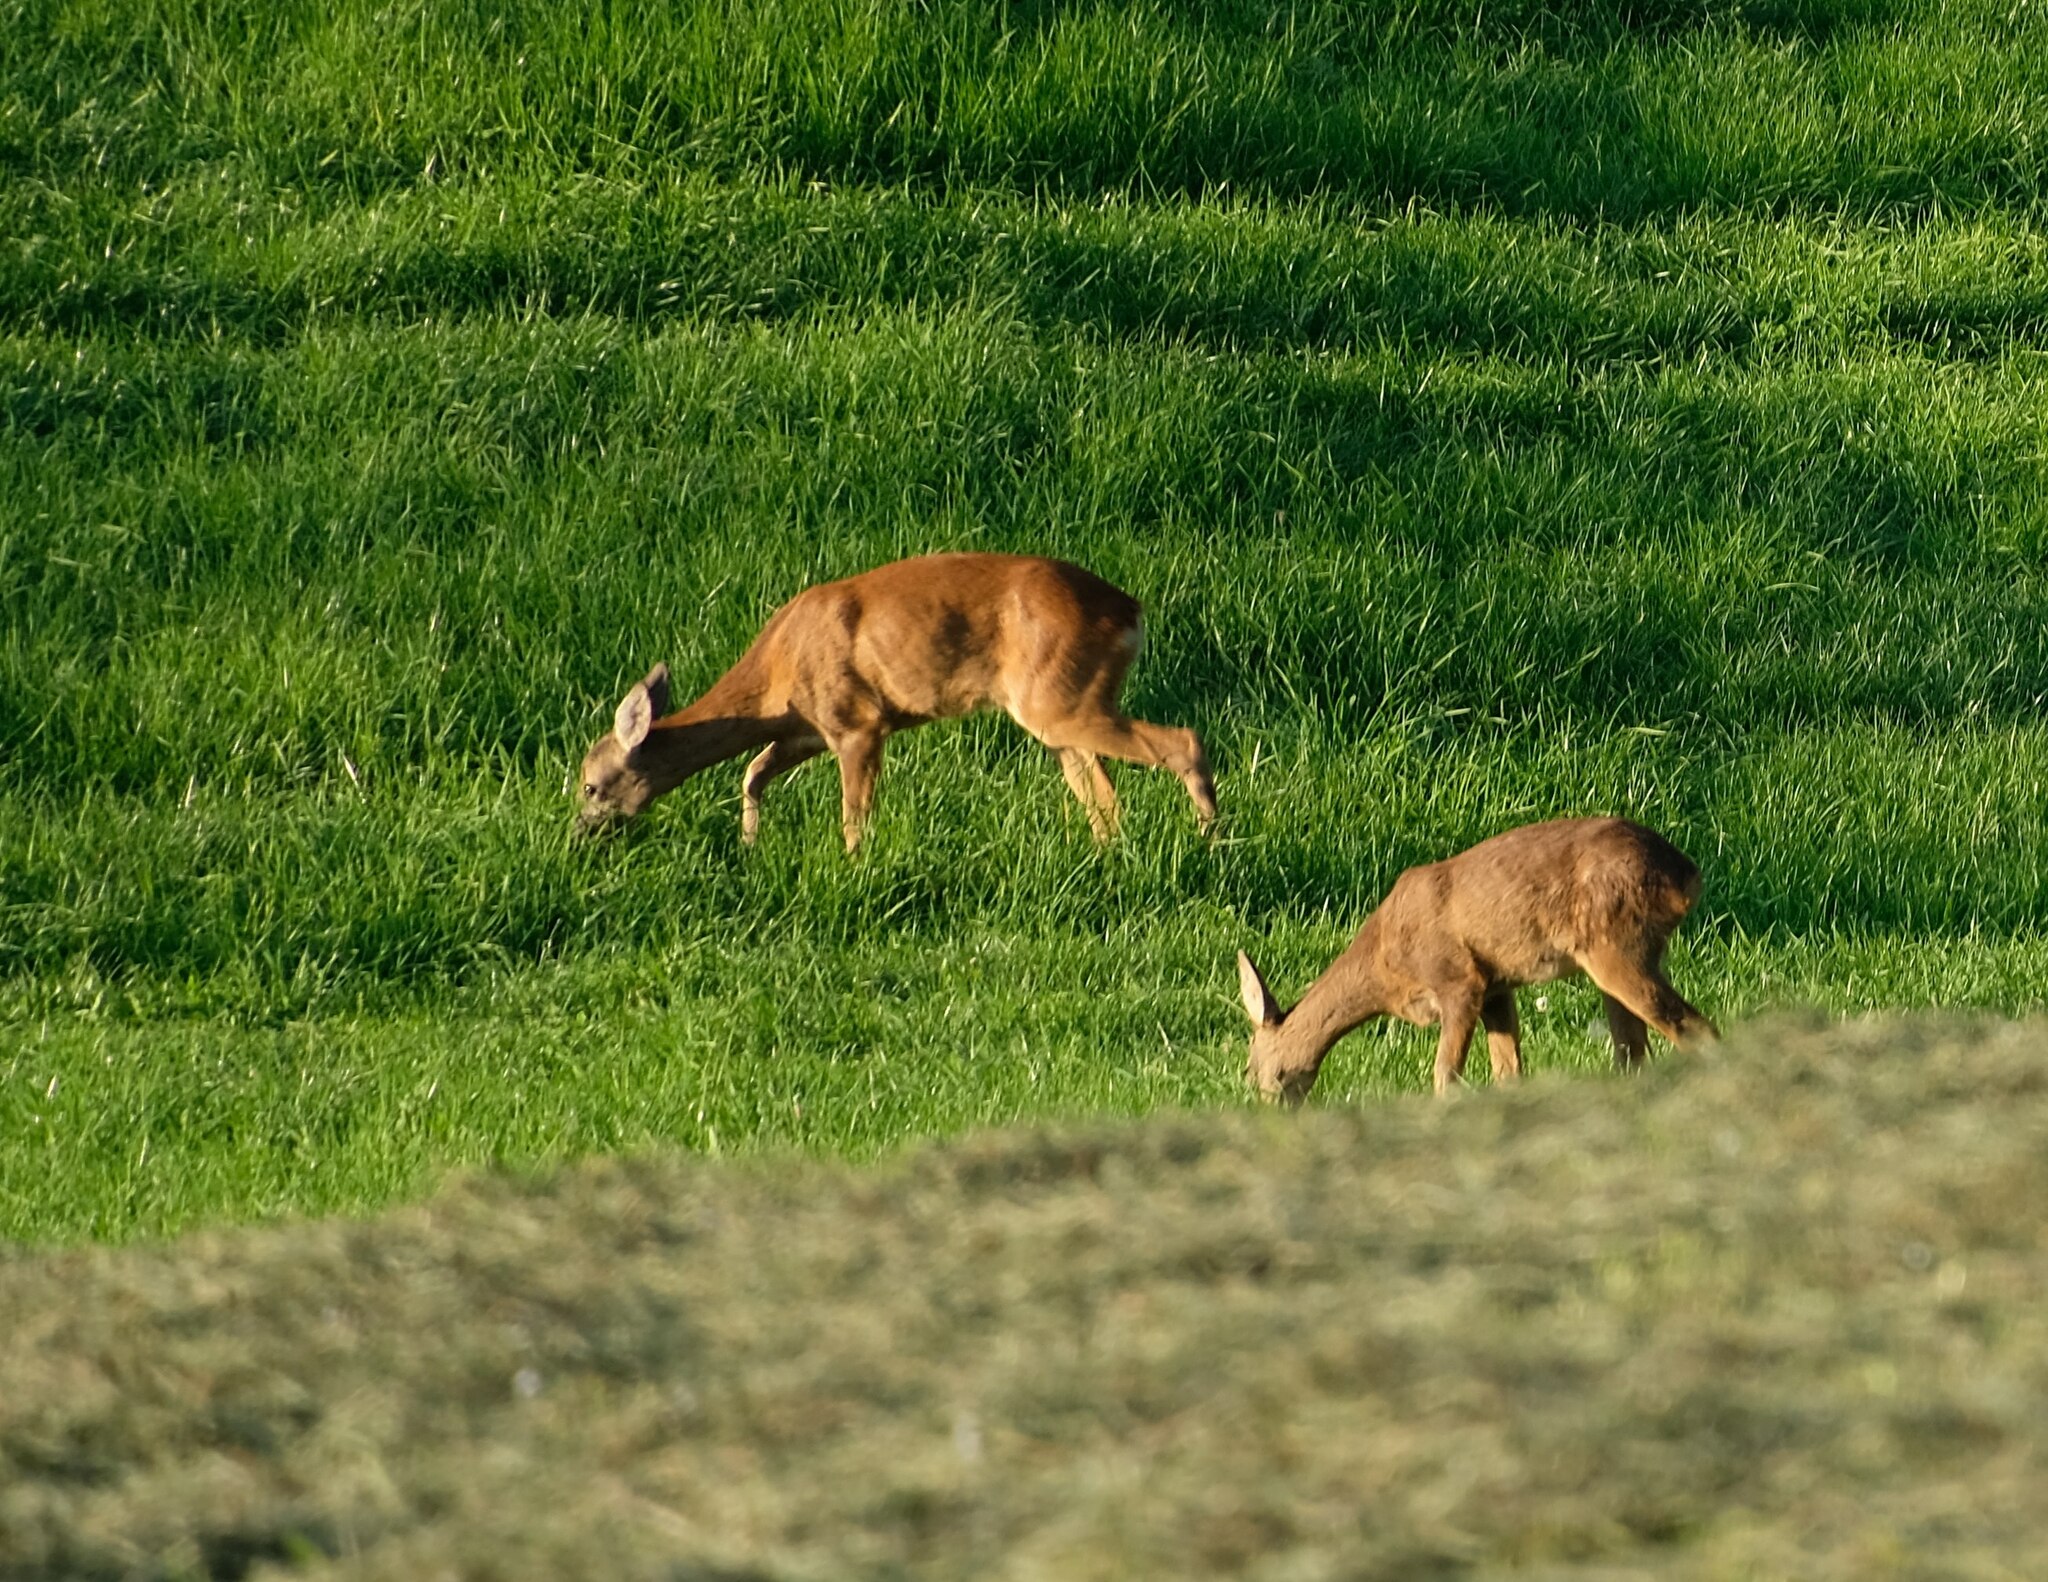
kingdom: Animalia
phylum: Chordata
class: Mammalia
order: Artiodactyla
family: Cervidae
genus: Capreolus
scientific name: Capreolus capreolus
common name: Western roe deer
